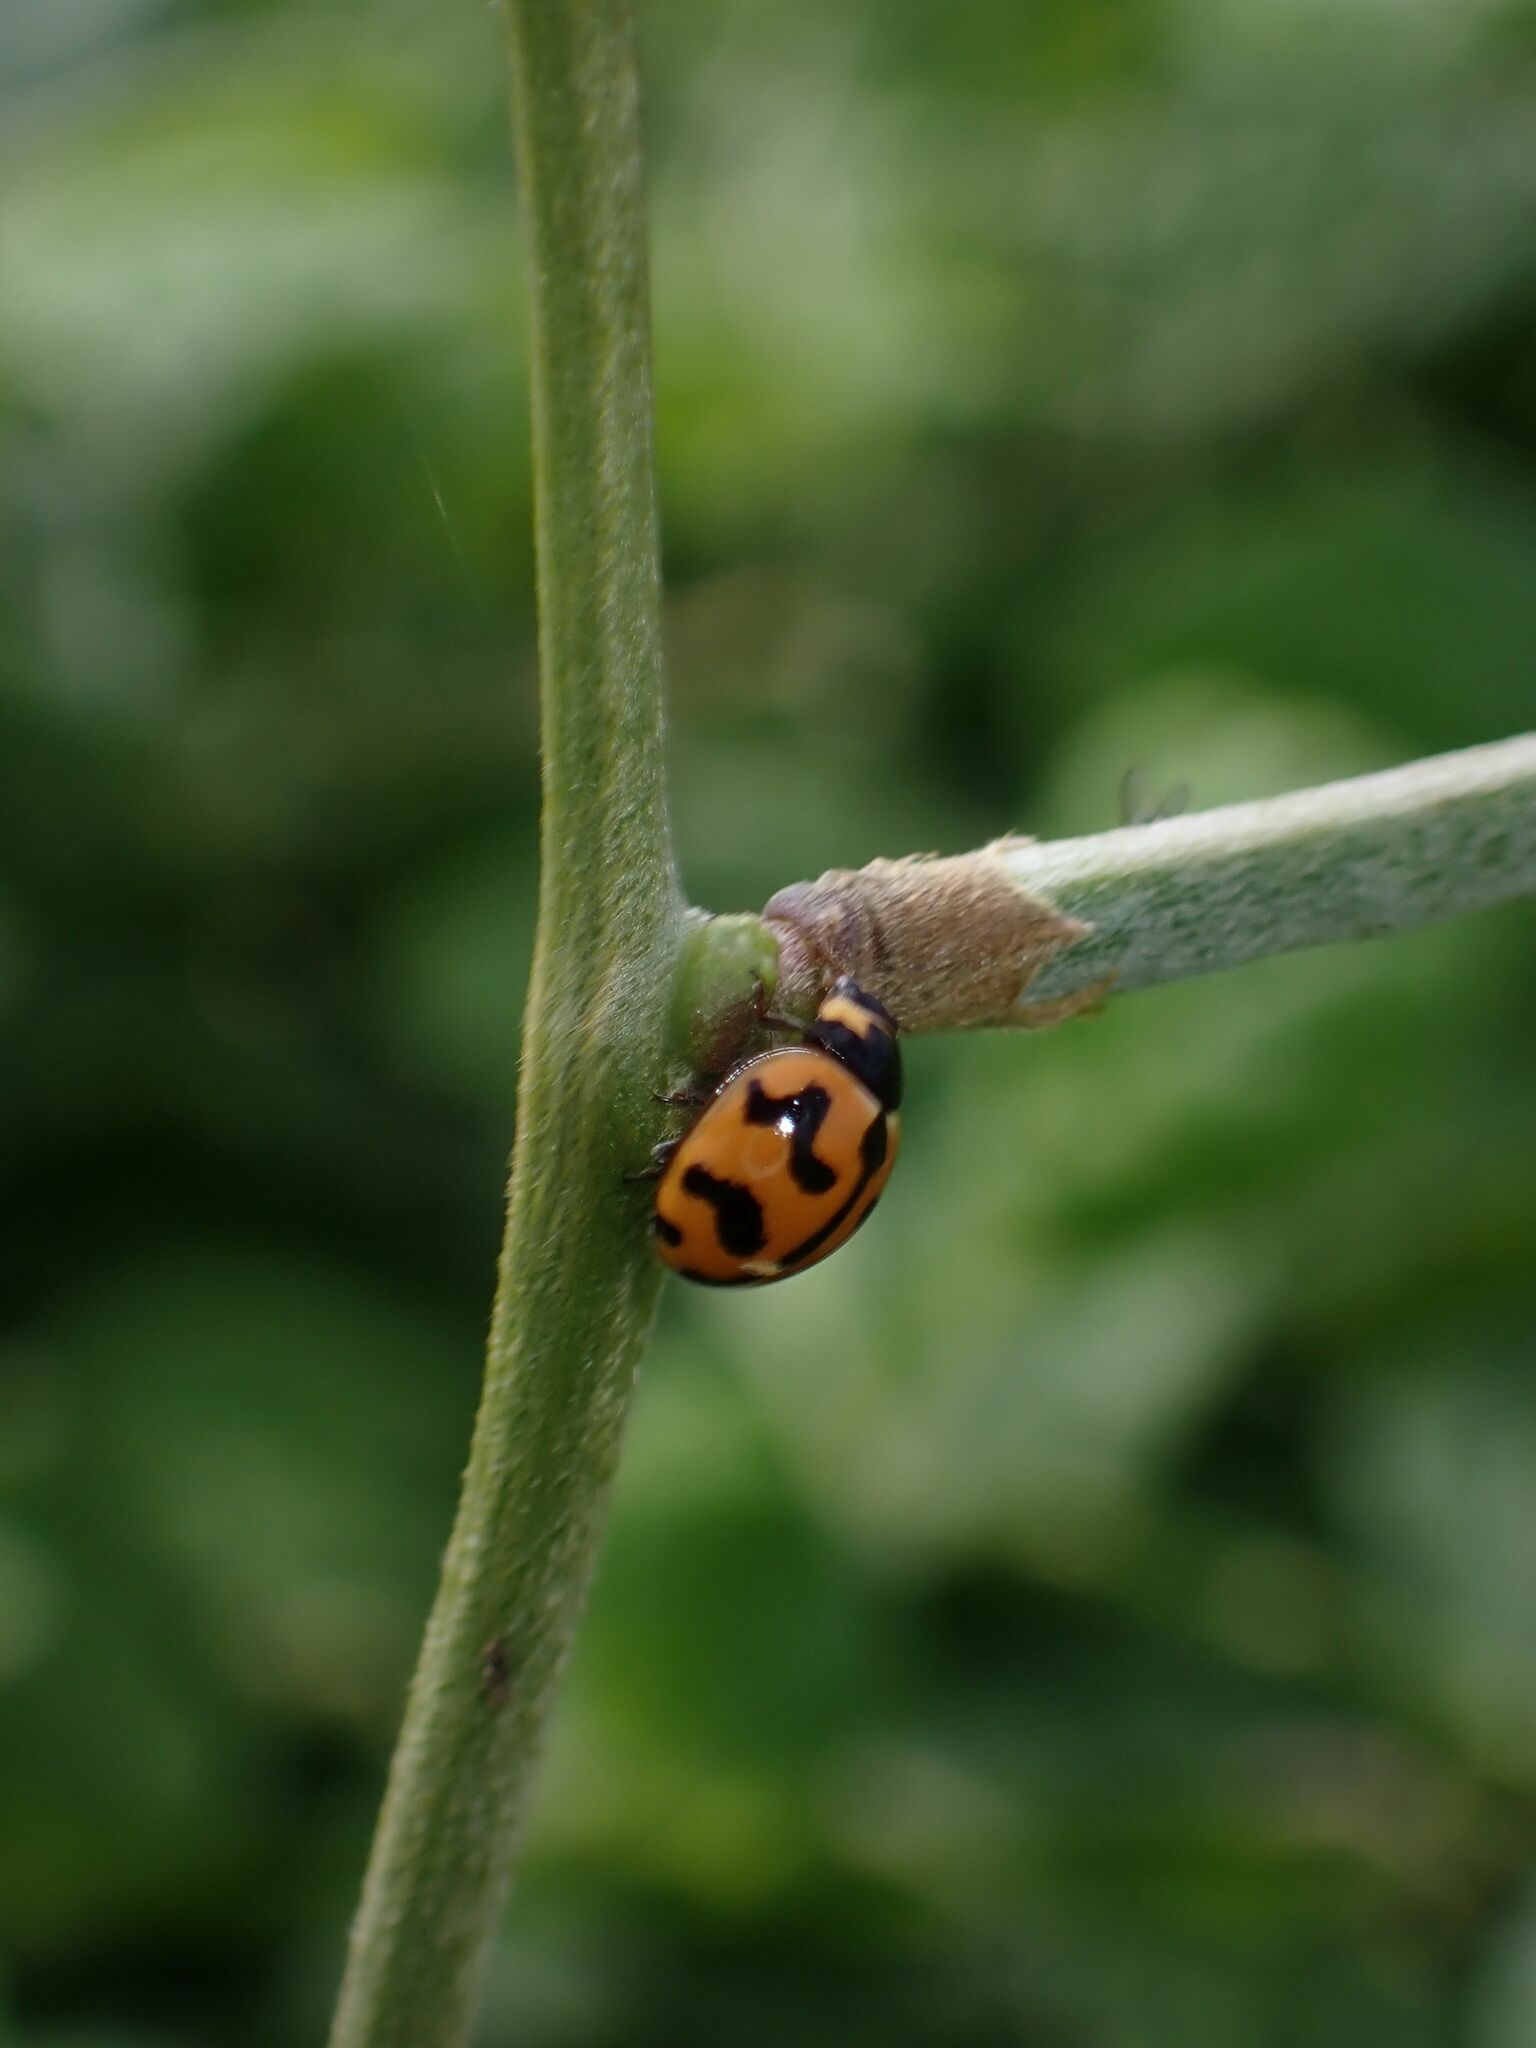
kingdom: Animalia
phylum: Arthropoda
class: Insecta
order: Coleoptera
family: Coccinellidae
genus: Coccinella
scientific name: Coccinella transversalis
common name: Transverse lady beetle
